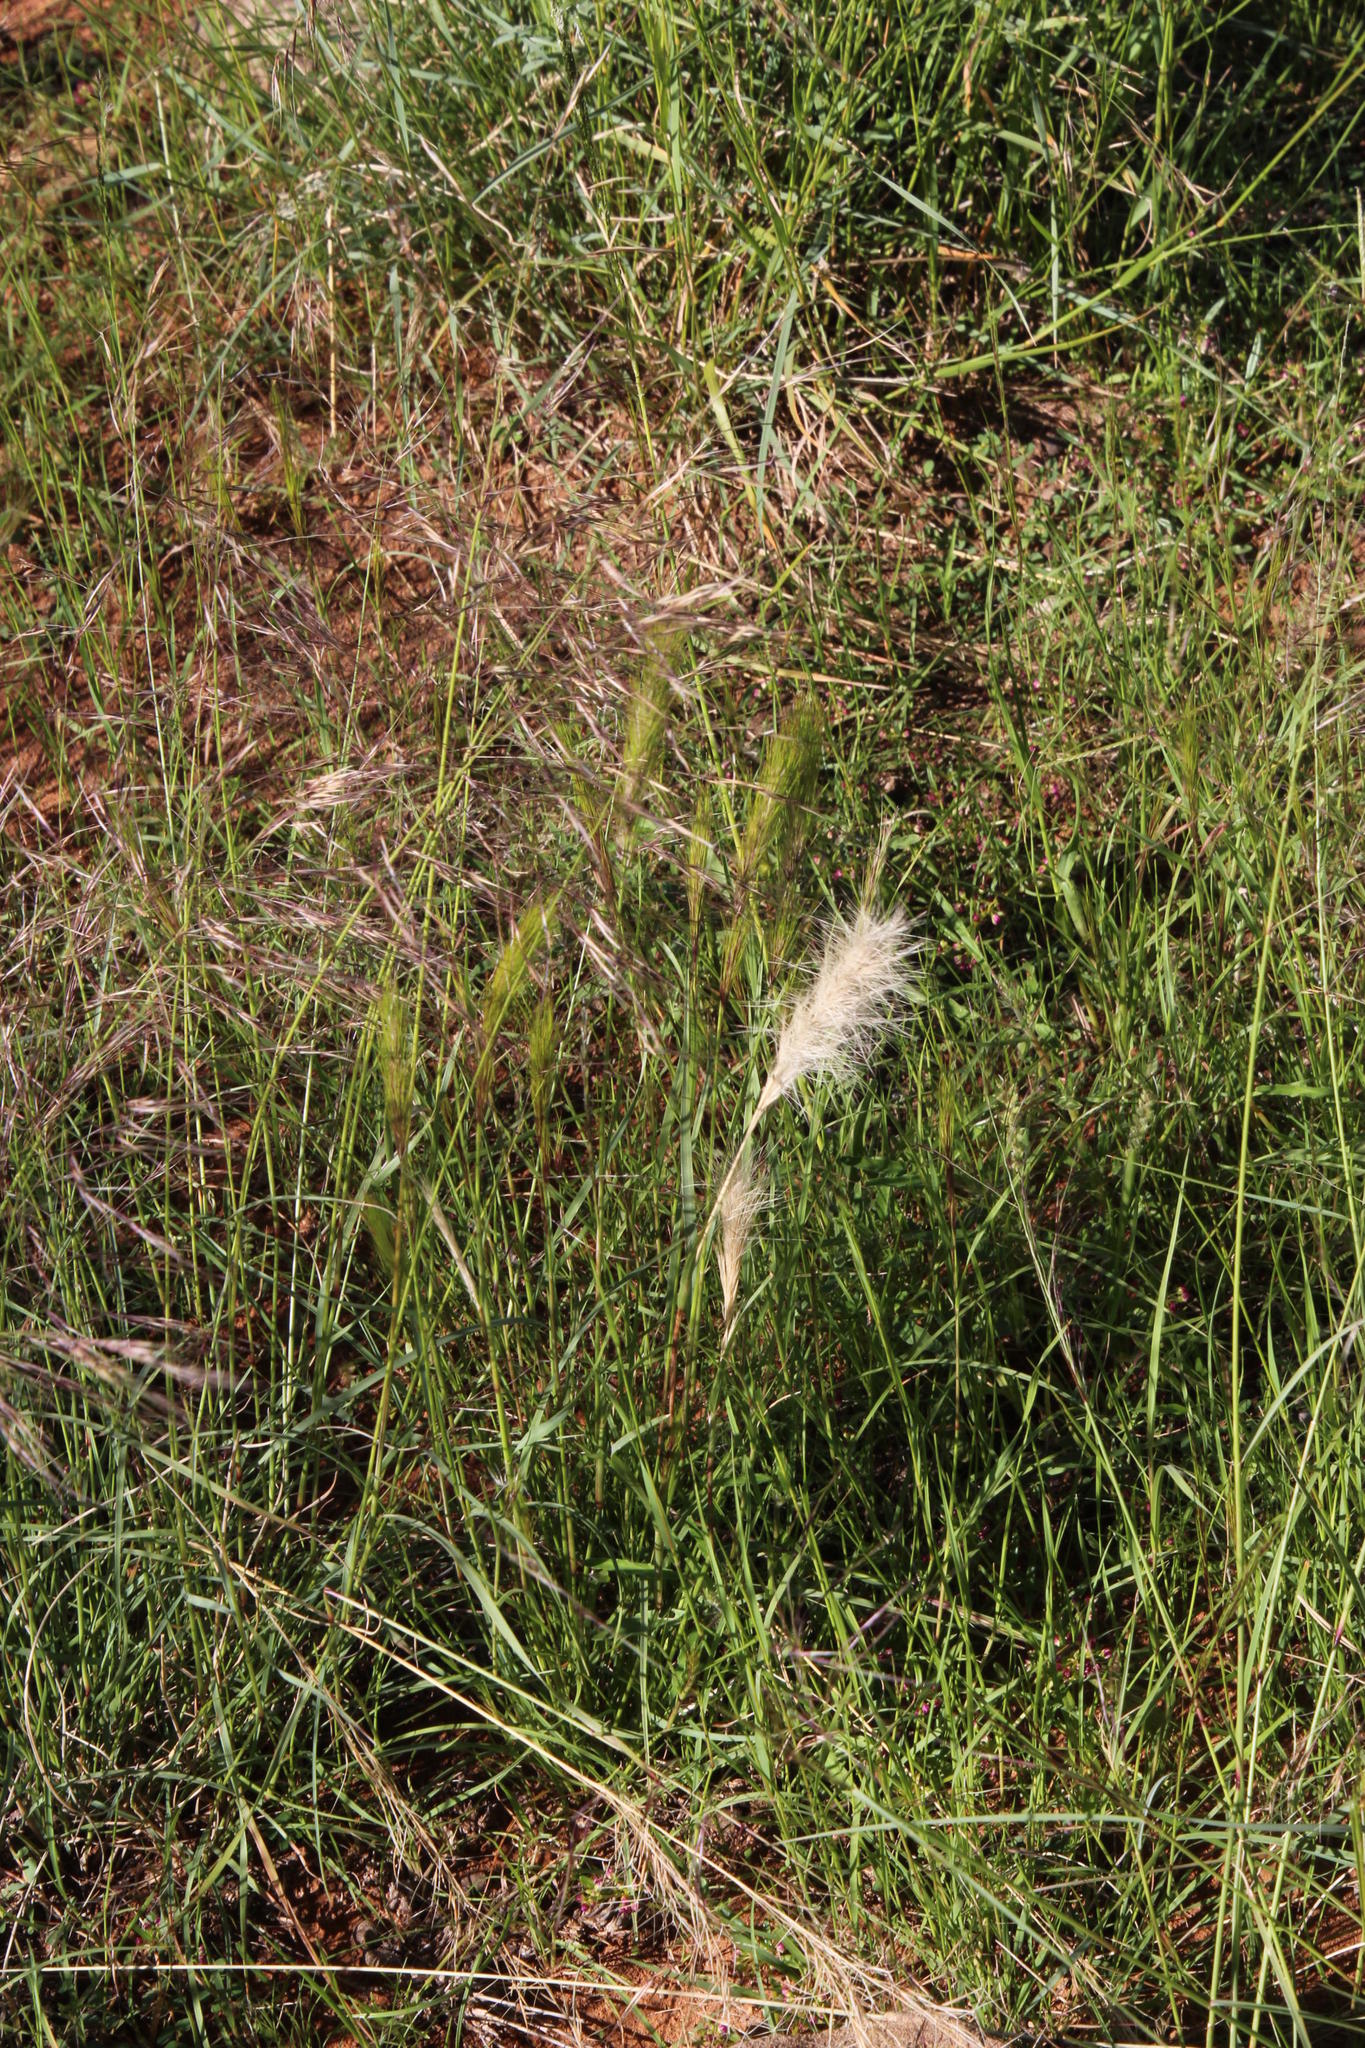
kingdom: Plantae
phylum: Tracheophyta
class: Liliopsida
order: Poales
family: Poaceae
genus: Aristida
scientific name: Aristida congesta
